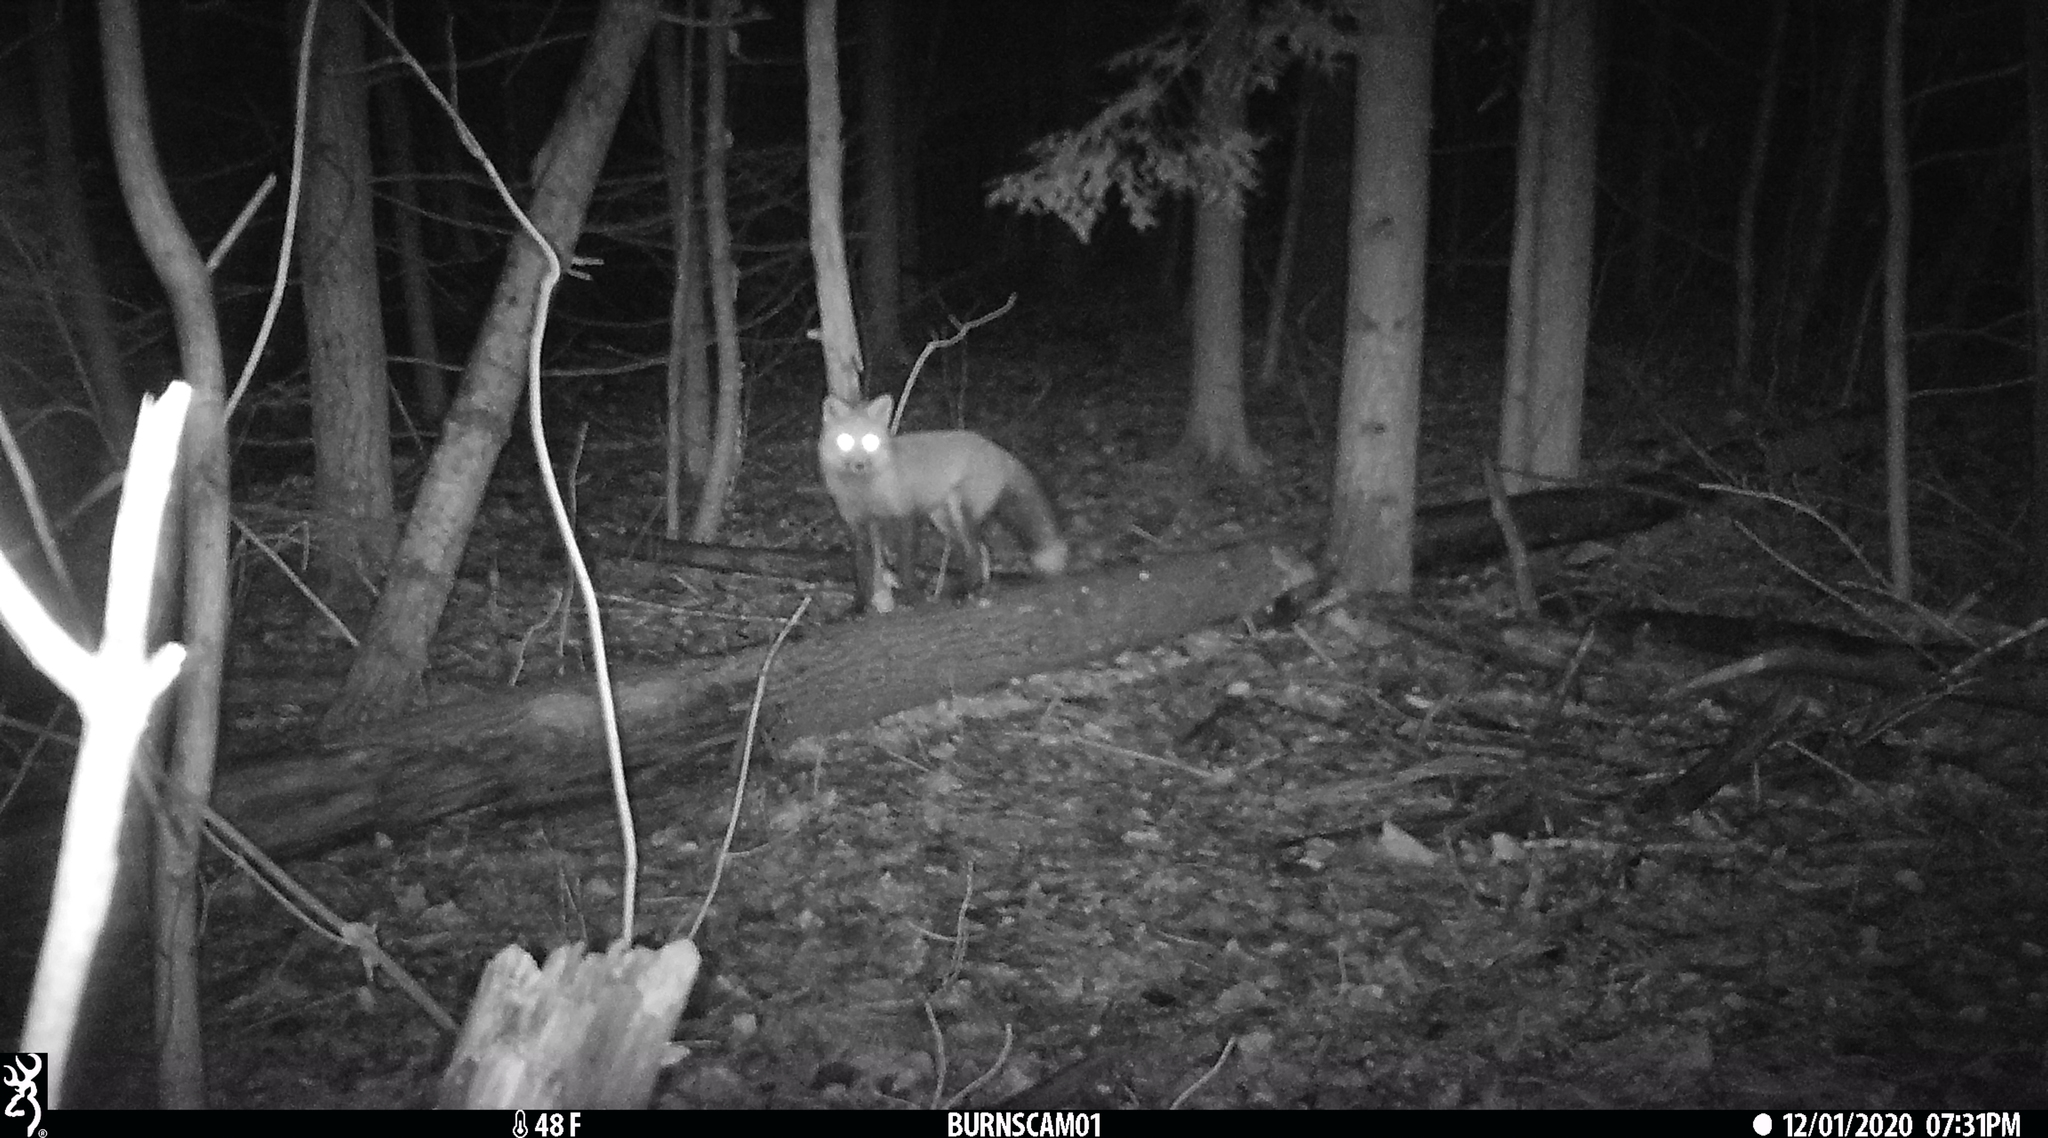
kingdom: Animalia
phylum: Chordata
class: Mammalia
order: Carnivora
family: Canidae
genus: Vulpes
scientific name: Vulpes vulpes
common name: Red fox
